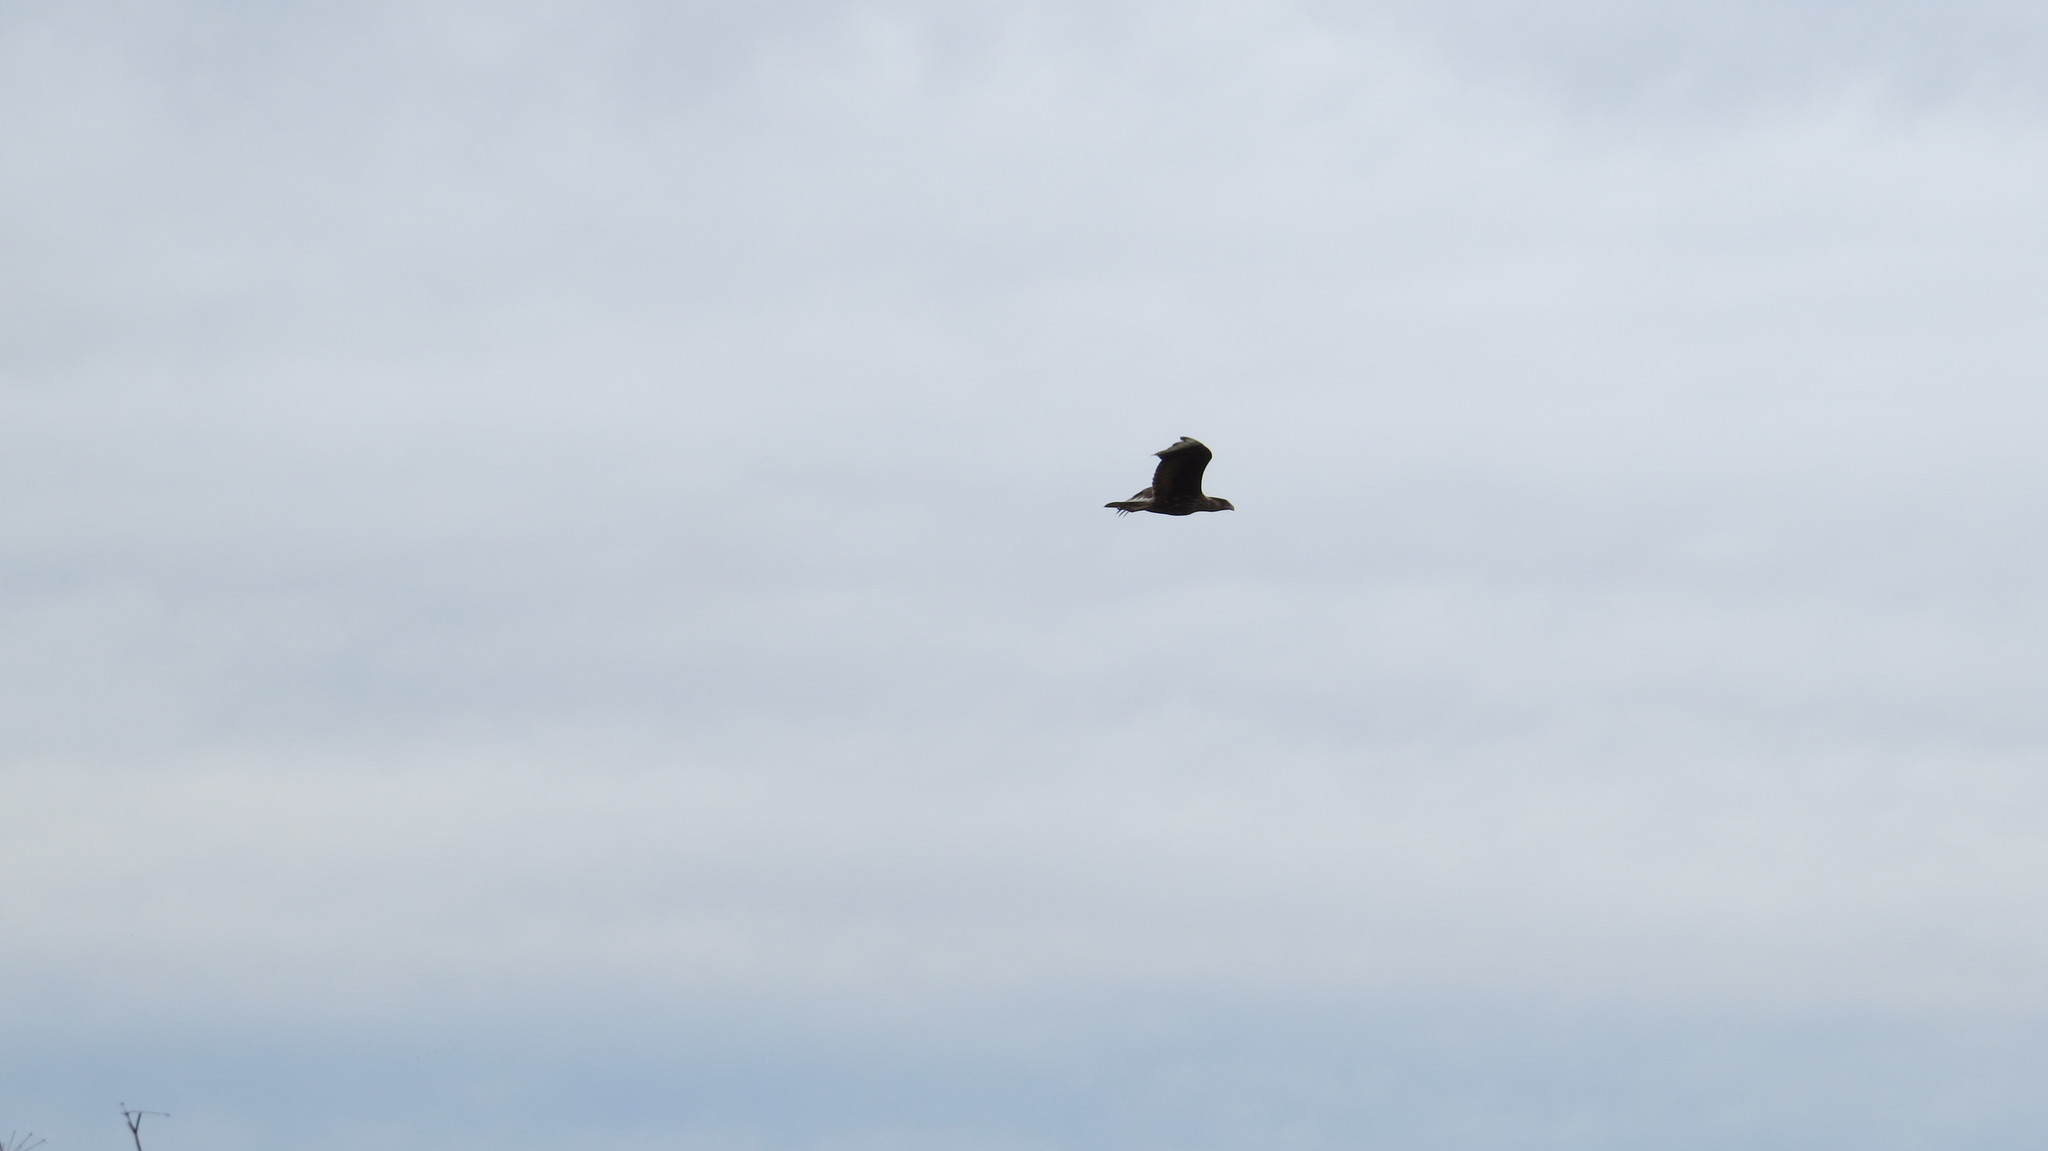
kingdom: Animalia
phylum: Chordata
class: Aves
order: Falconiformes
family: Falconidae
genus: Caracara
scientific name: Caracara plancus
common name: Southern caracara
